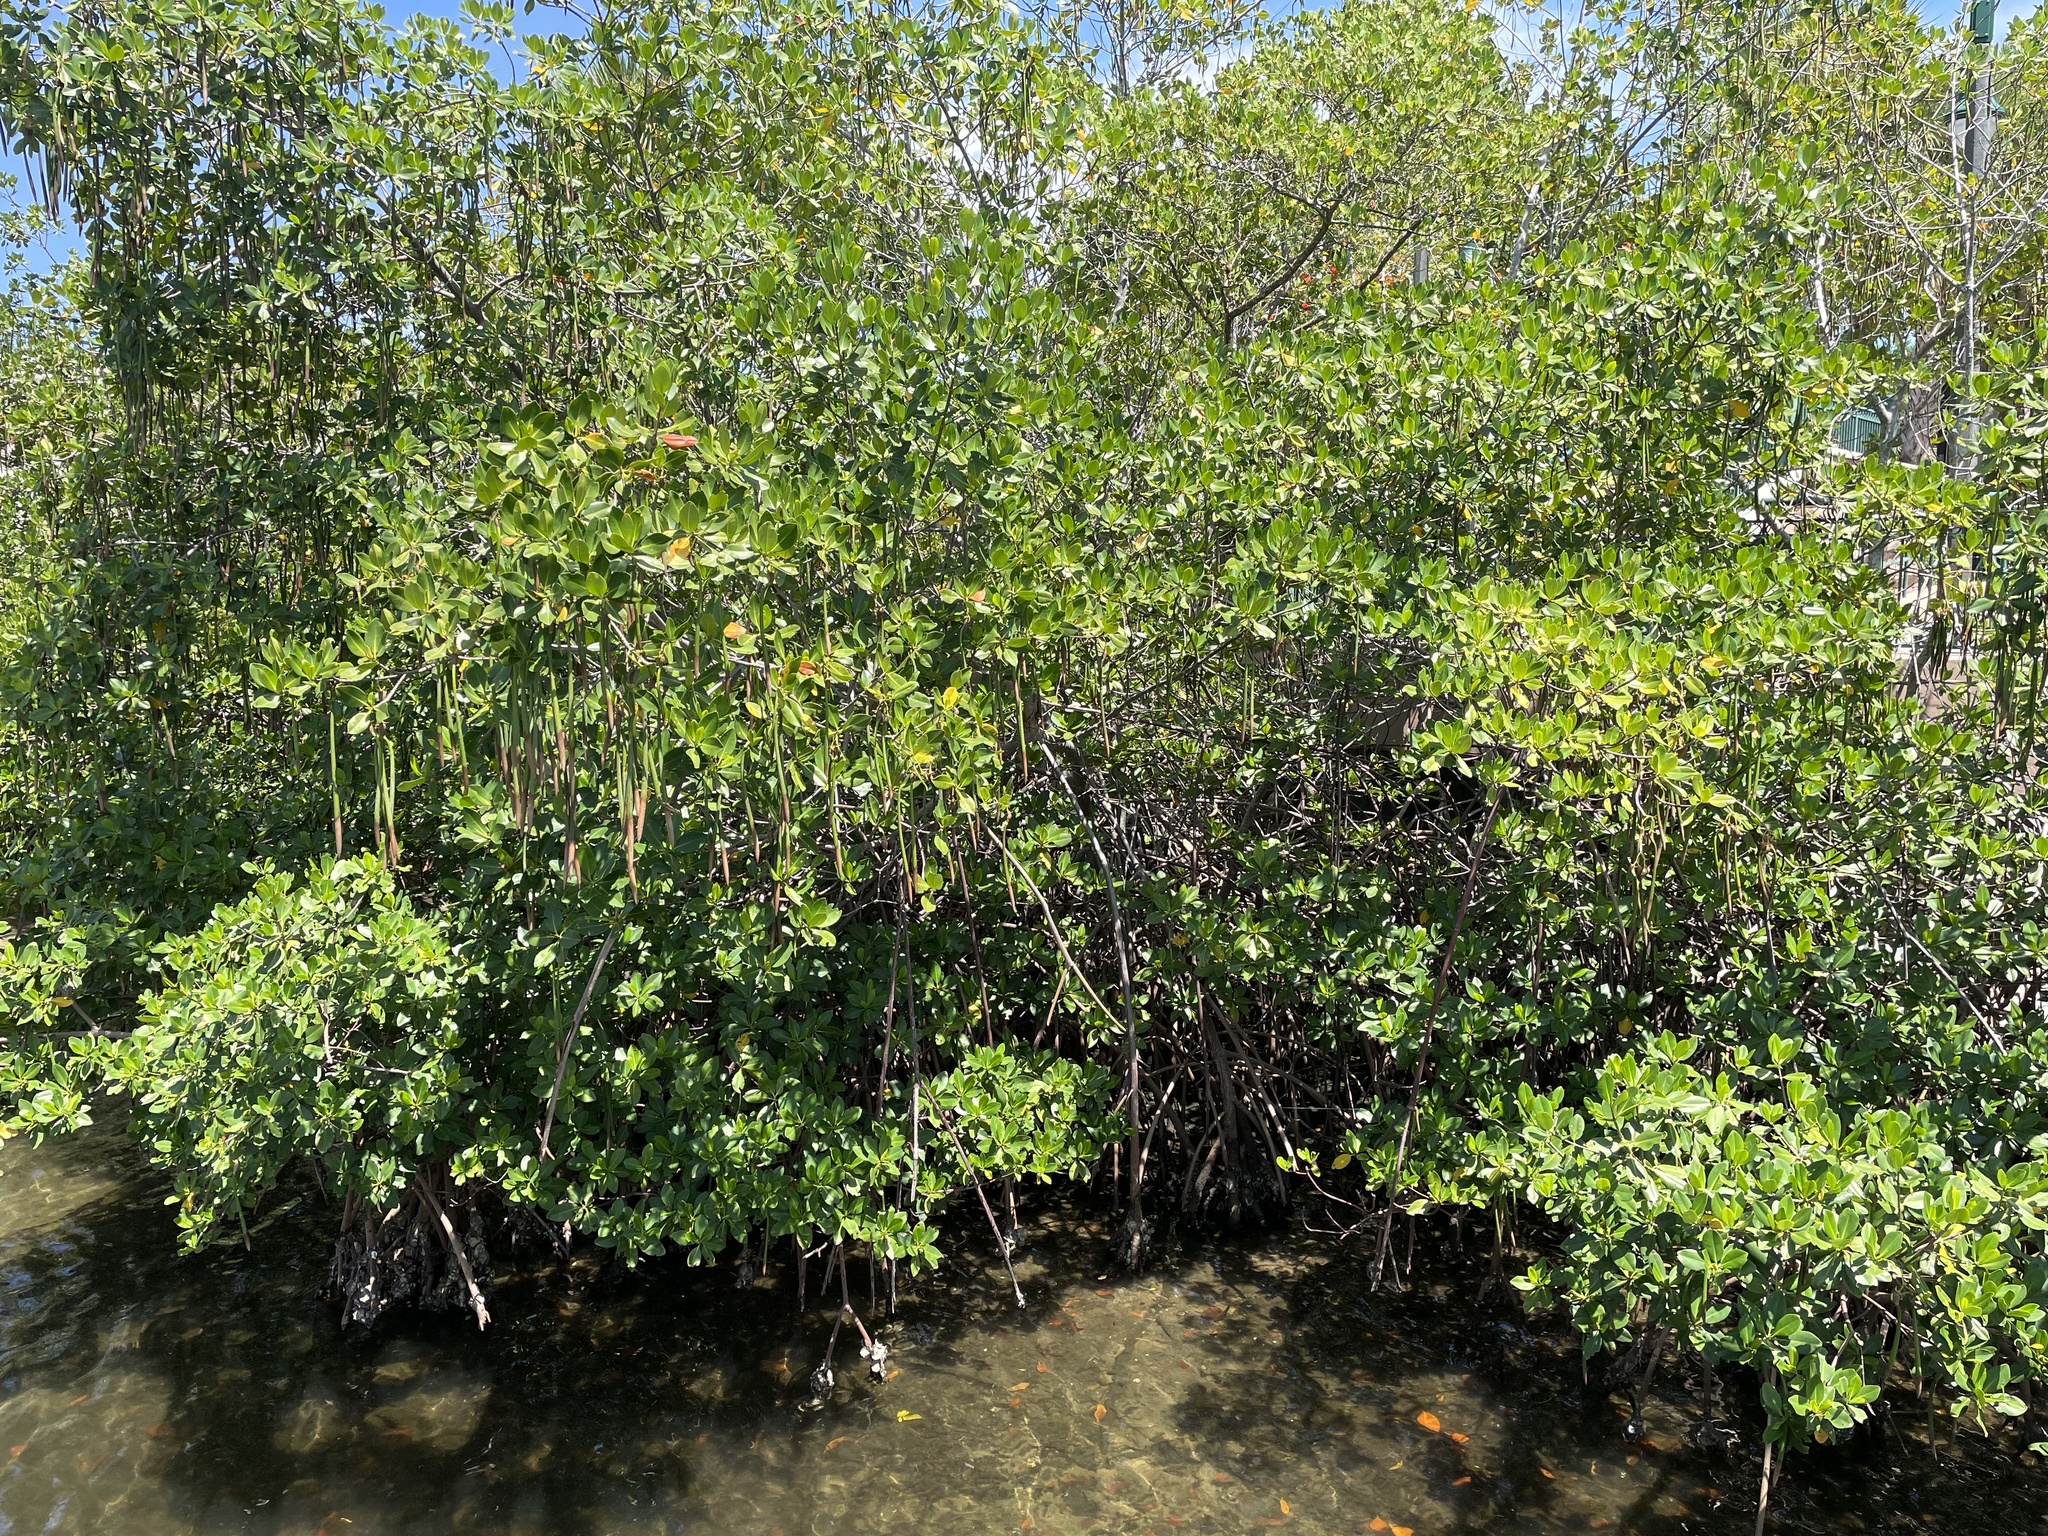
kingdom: Plantae
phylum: Tracheophyta
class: Magnoliopsida
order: Malpighiales
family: Rhizophoraceae
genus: Rhizophora
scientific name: Rhizophora mangle
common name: Red mangrove
